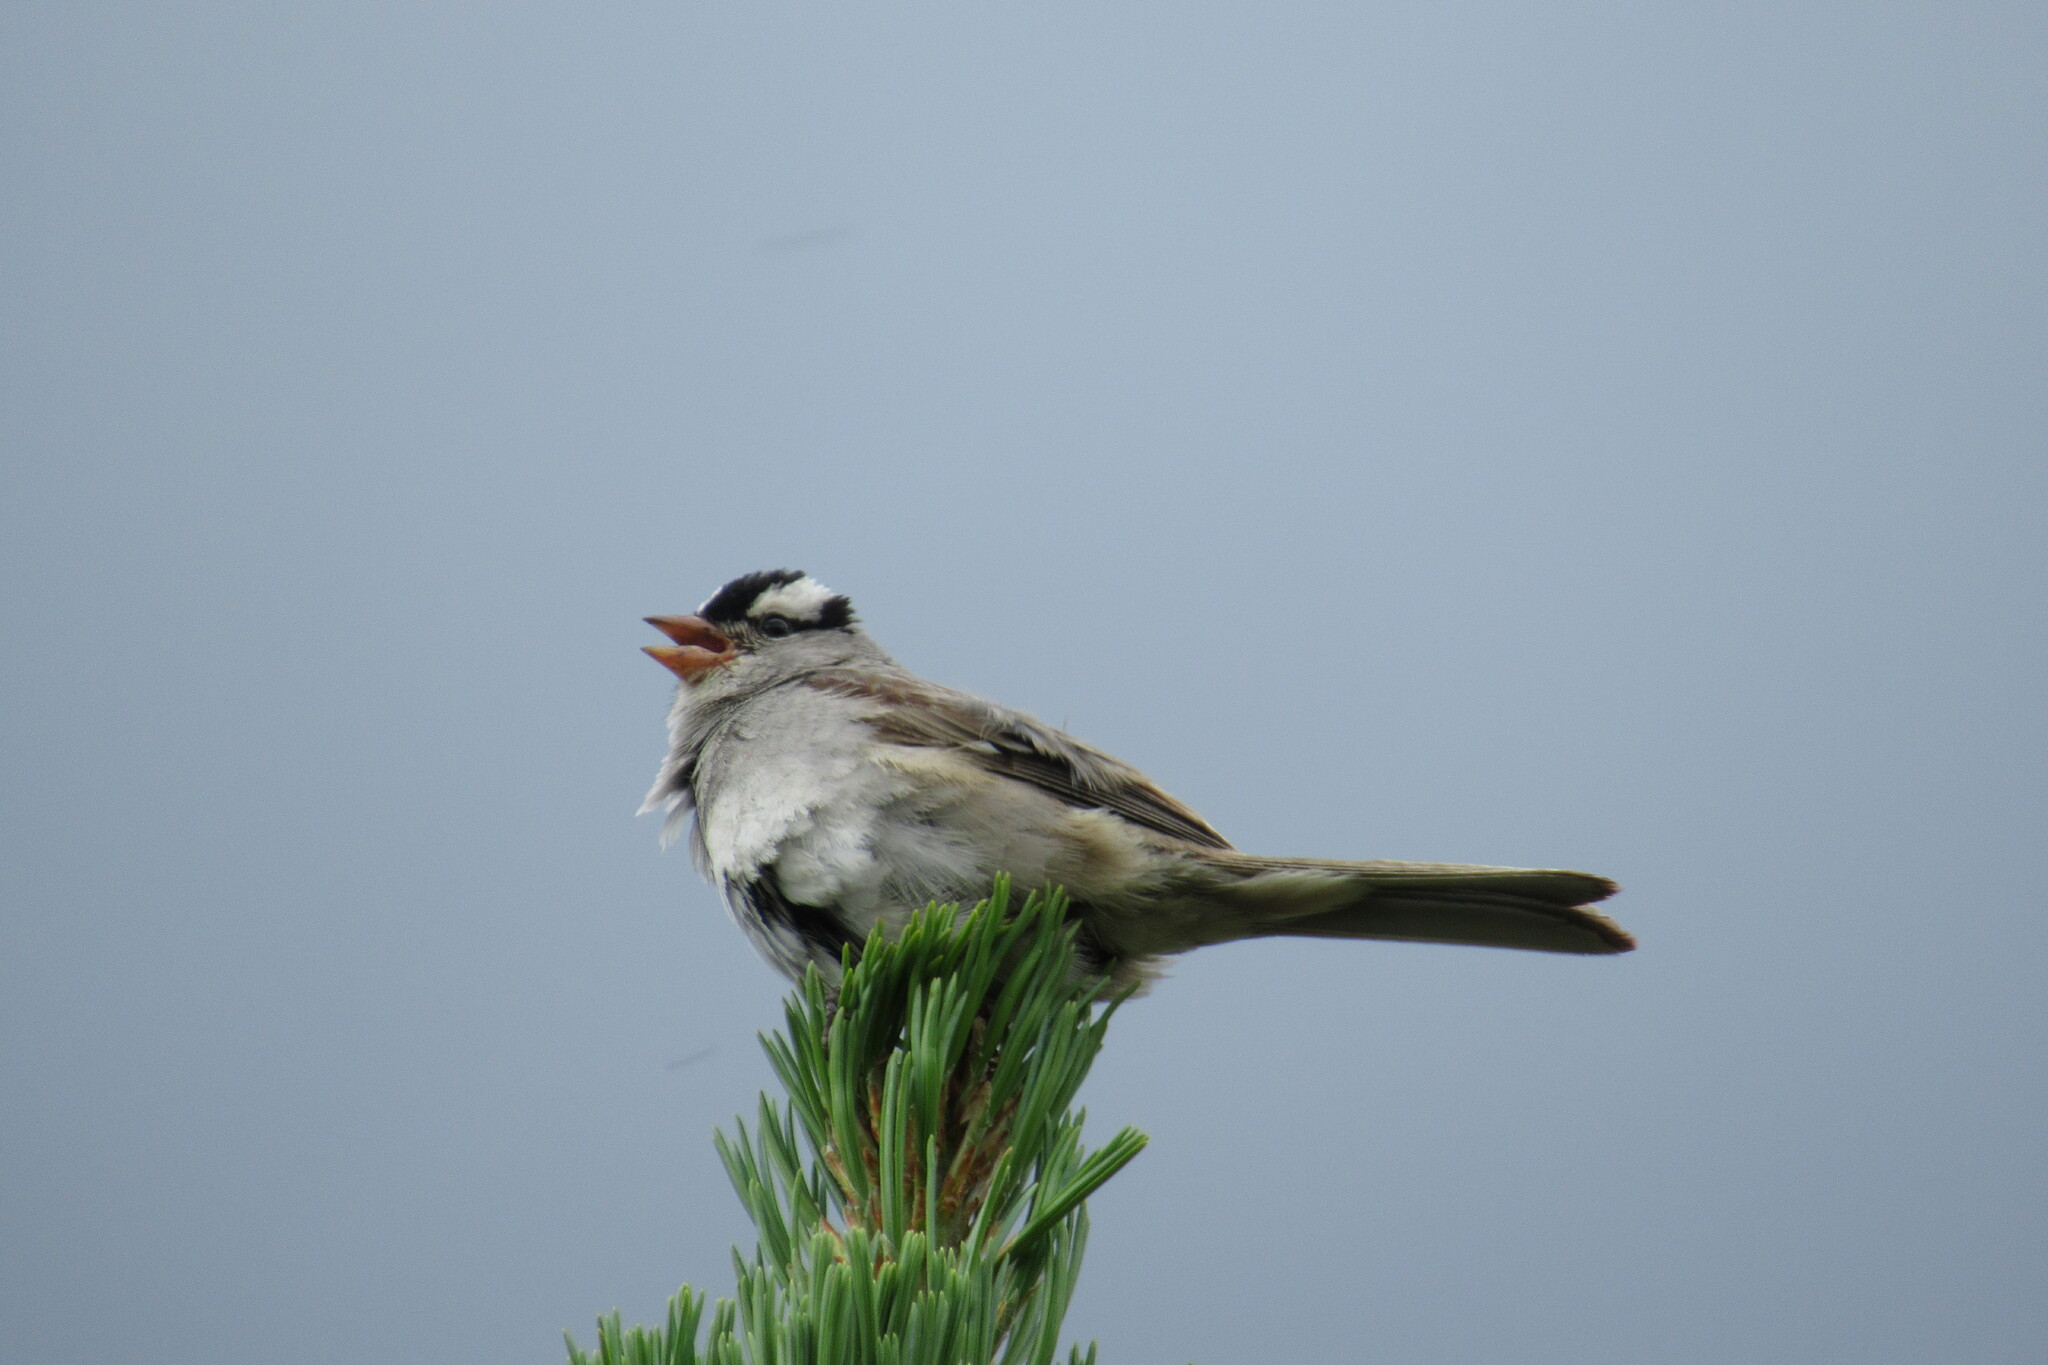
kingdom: Animalia
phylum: Chordata
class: Aves
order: Passeriformes
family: Passerellidae
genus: Zonotrichia
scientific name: Zonotrichia leucophrys
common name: White-crowned sparrow
